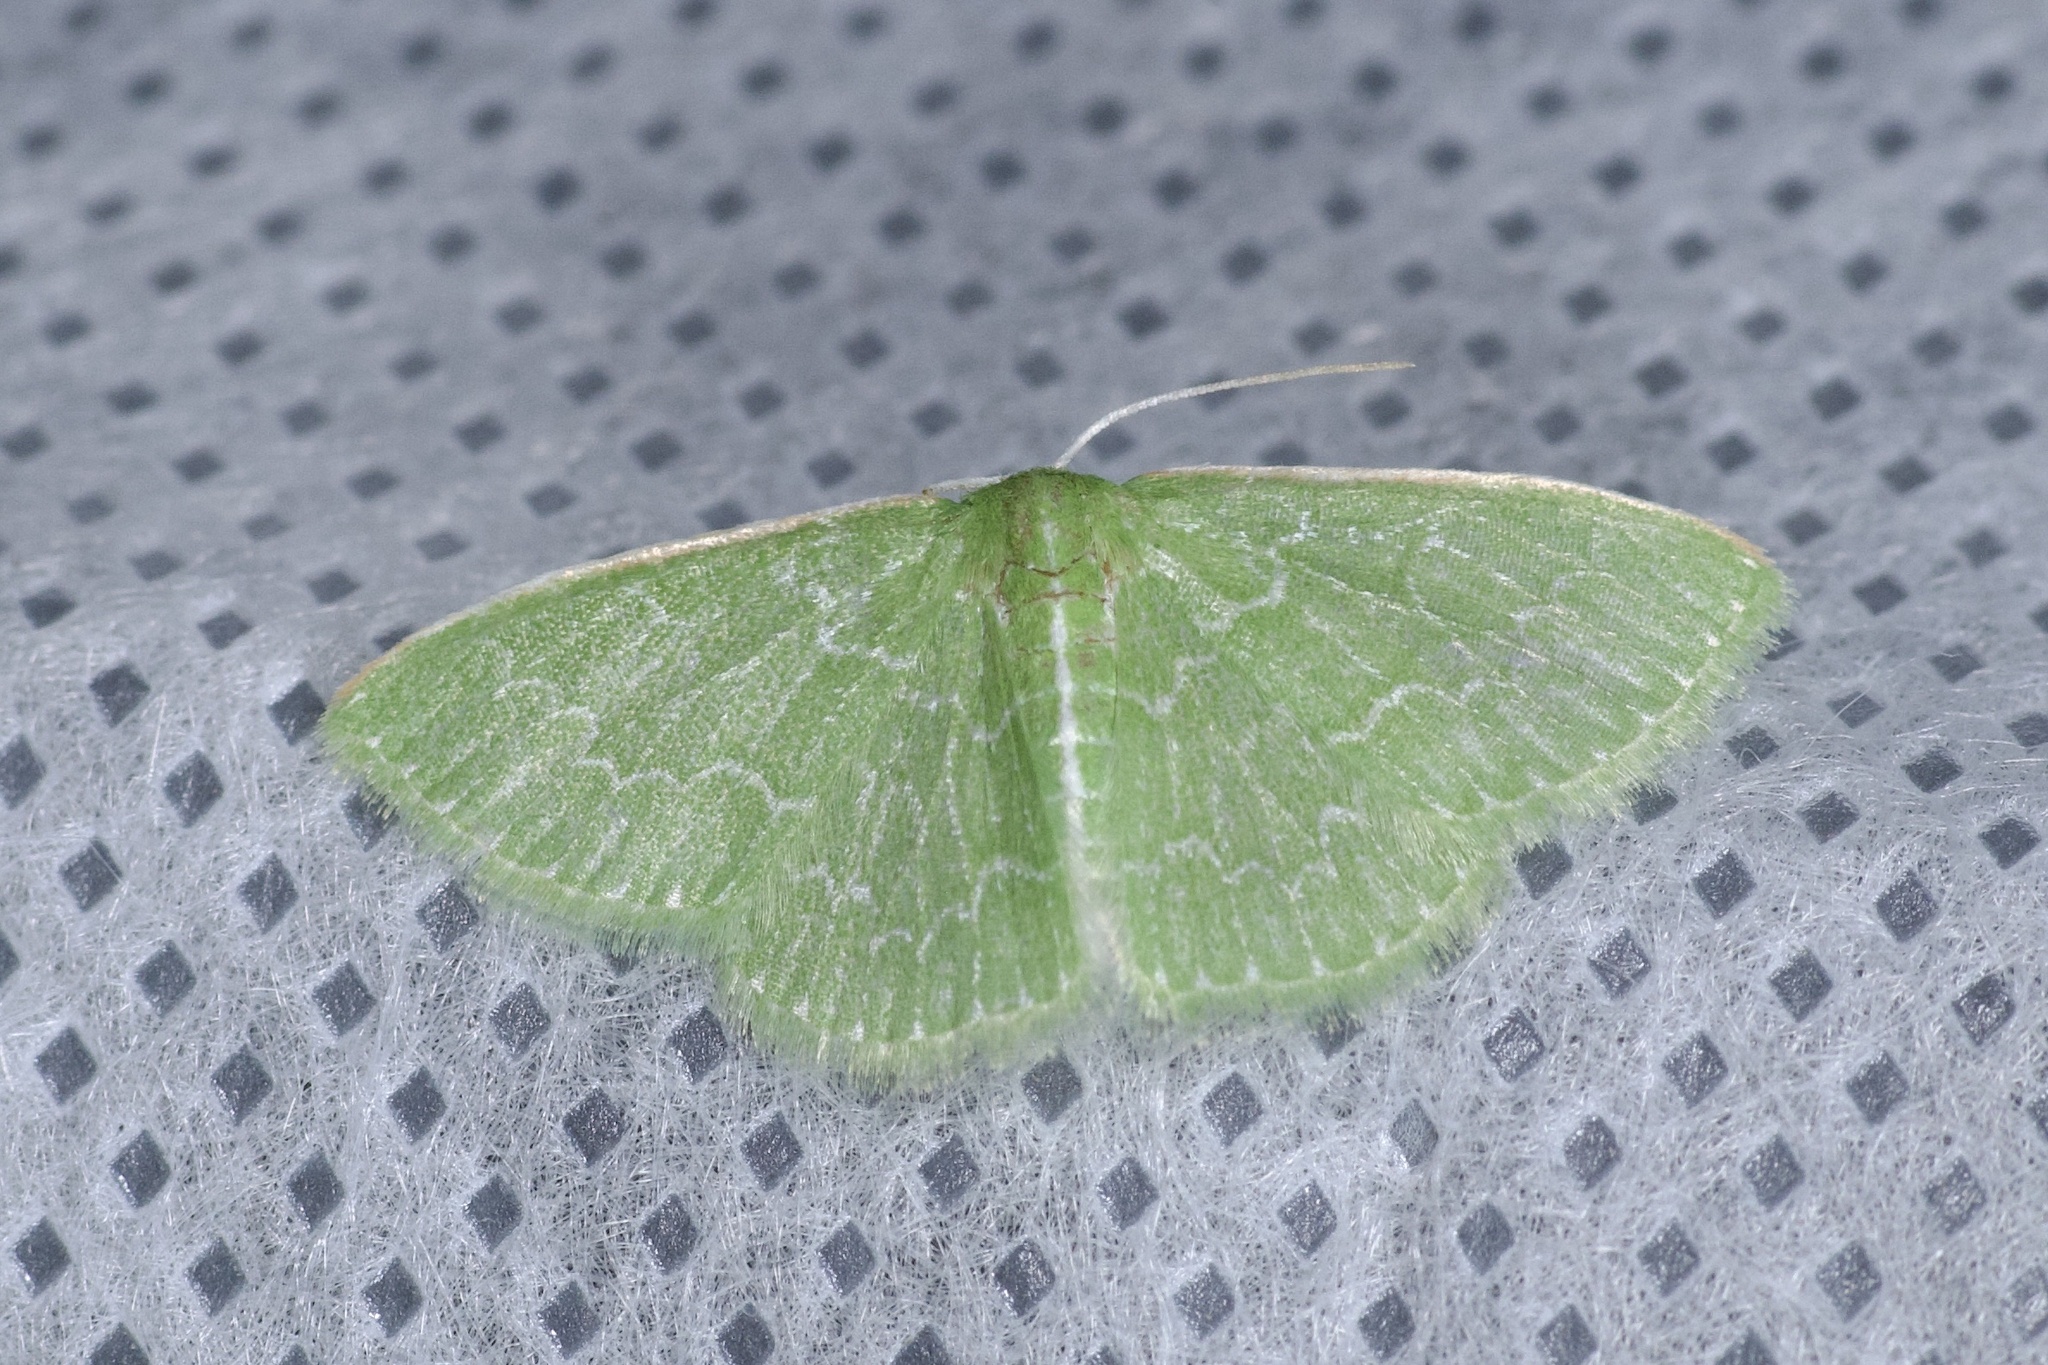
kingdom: Animalia
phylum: Arthropoda
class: Insecta
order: Lepidoptera
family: Geometridae
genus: Synchlora
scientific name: Synchlora frondaria
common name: Southern emerald
